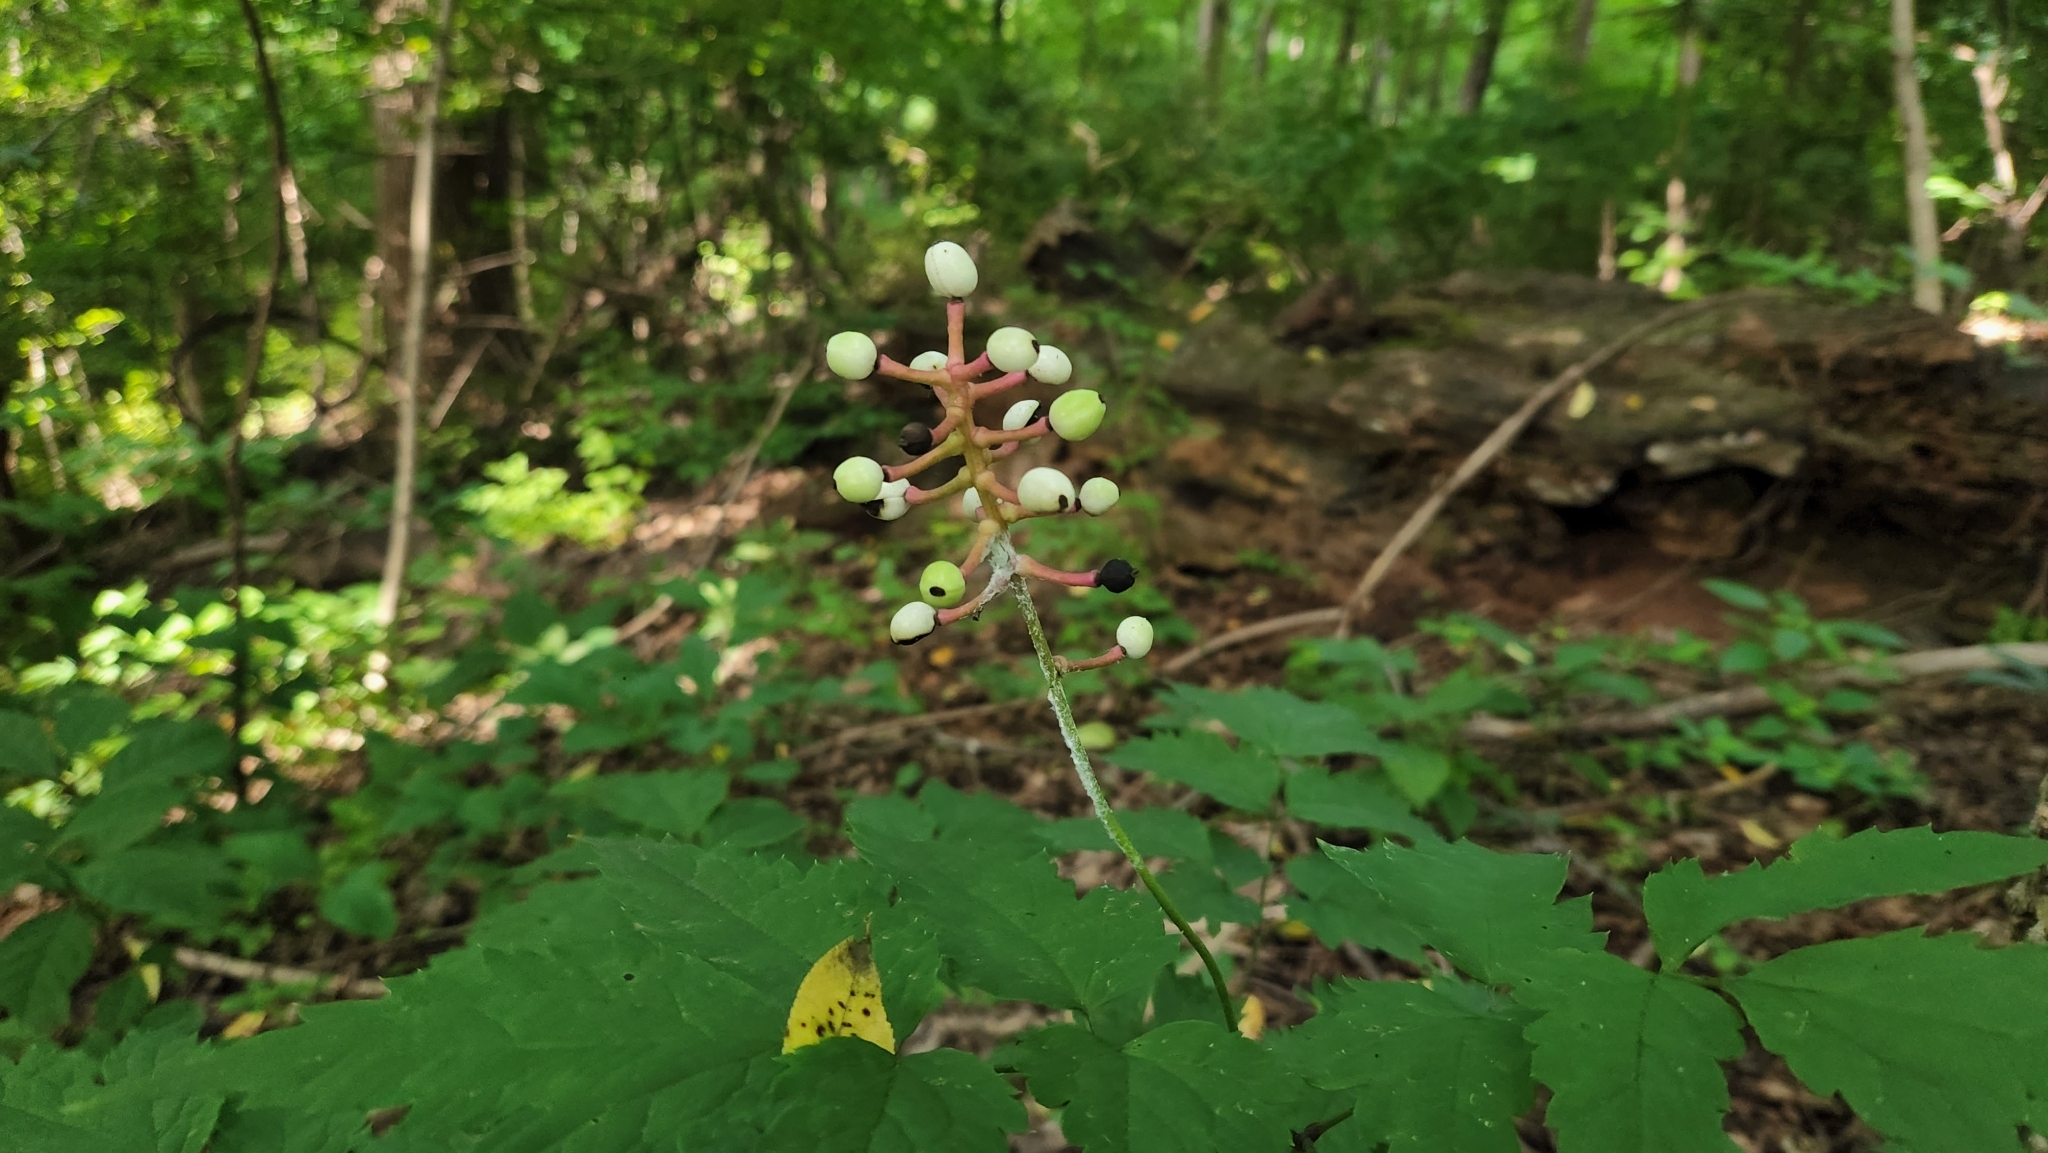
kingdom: Plantae
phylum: Tracheophyta
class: Magnoliopsida
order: Ranunculales
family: Ranunculaceae
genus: Actaea
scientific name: Actaea pachypoda
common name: Doll's-eyes
